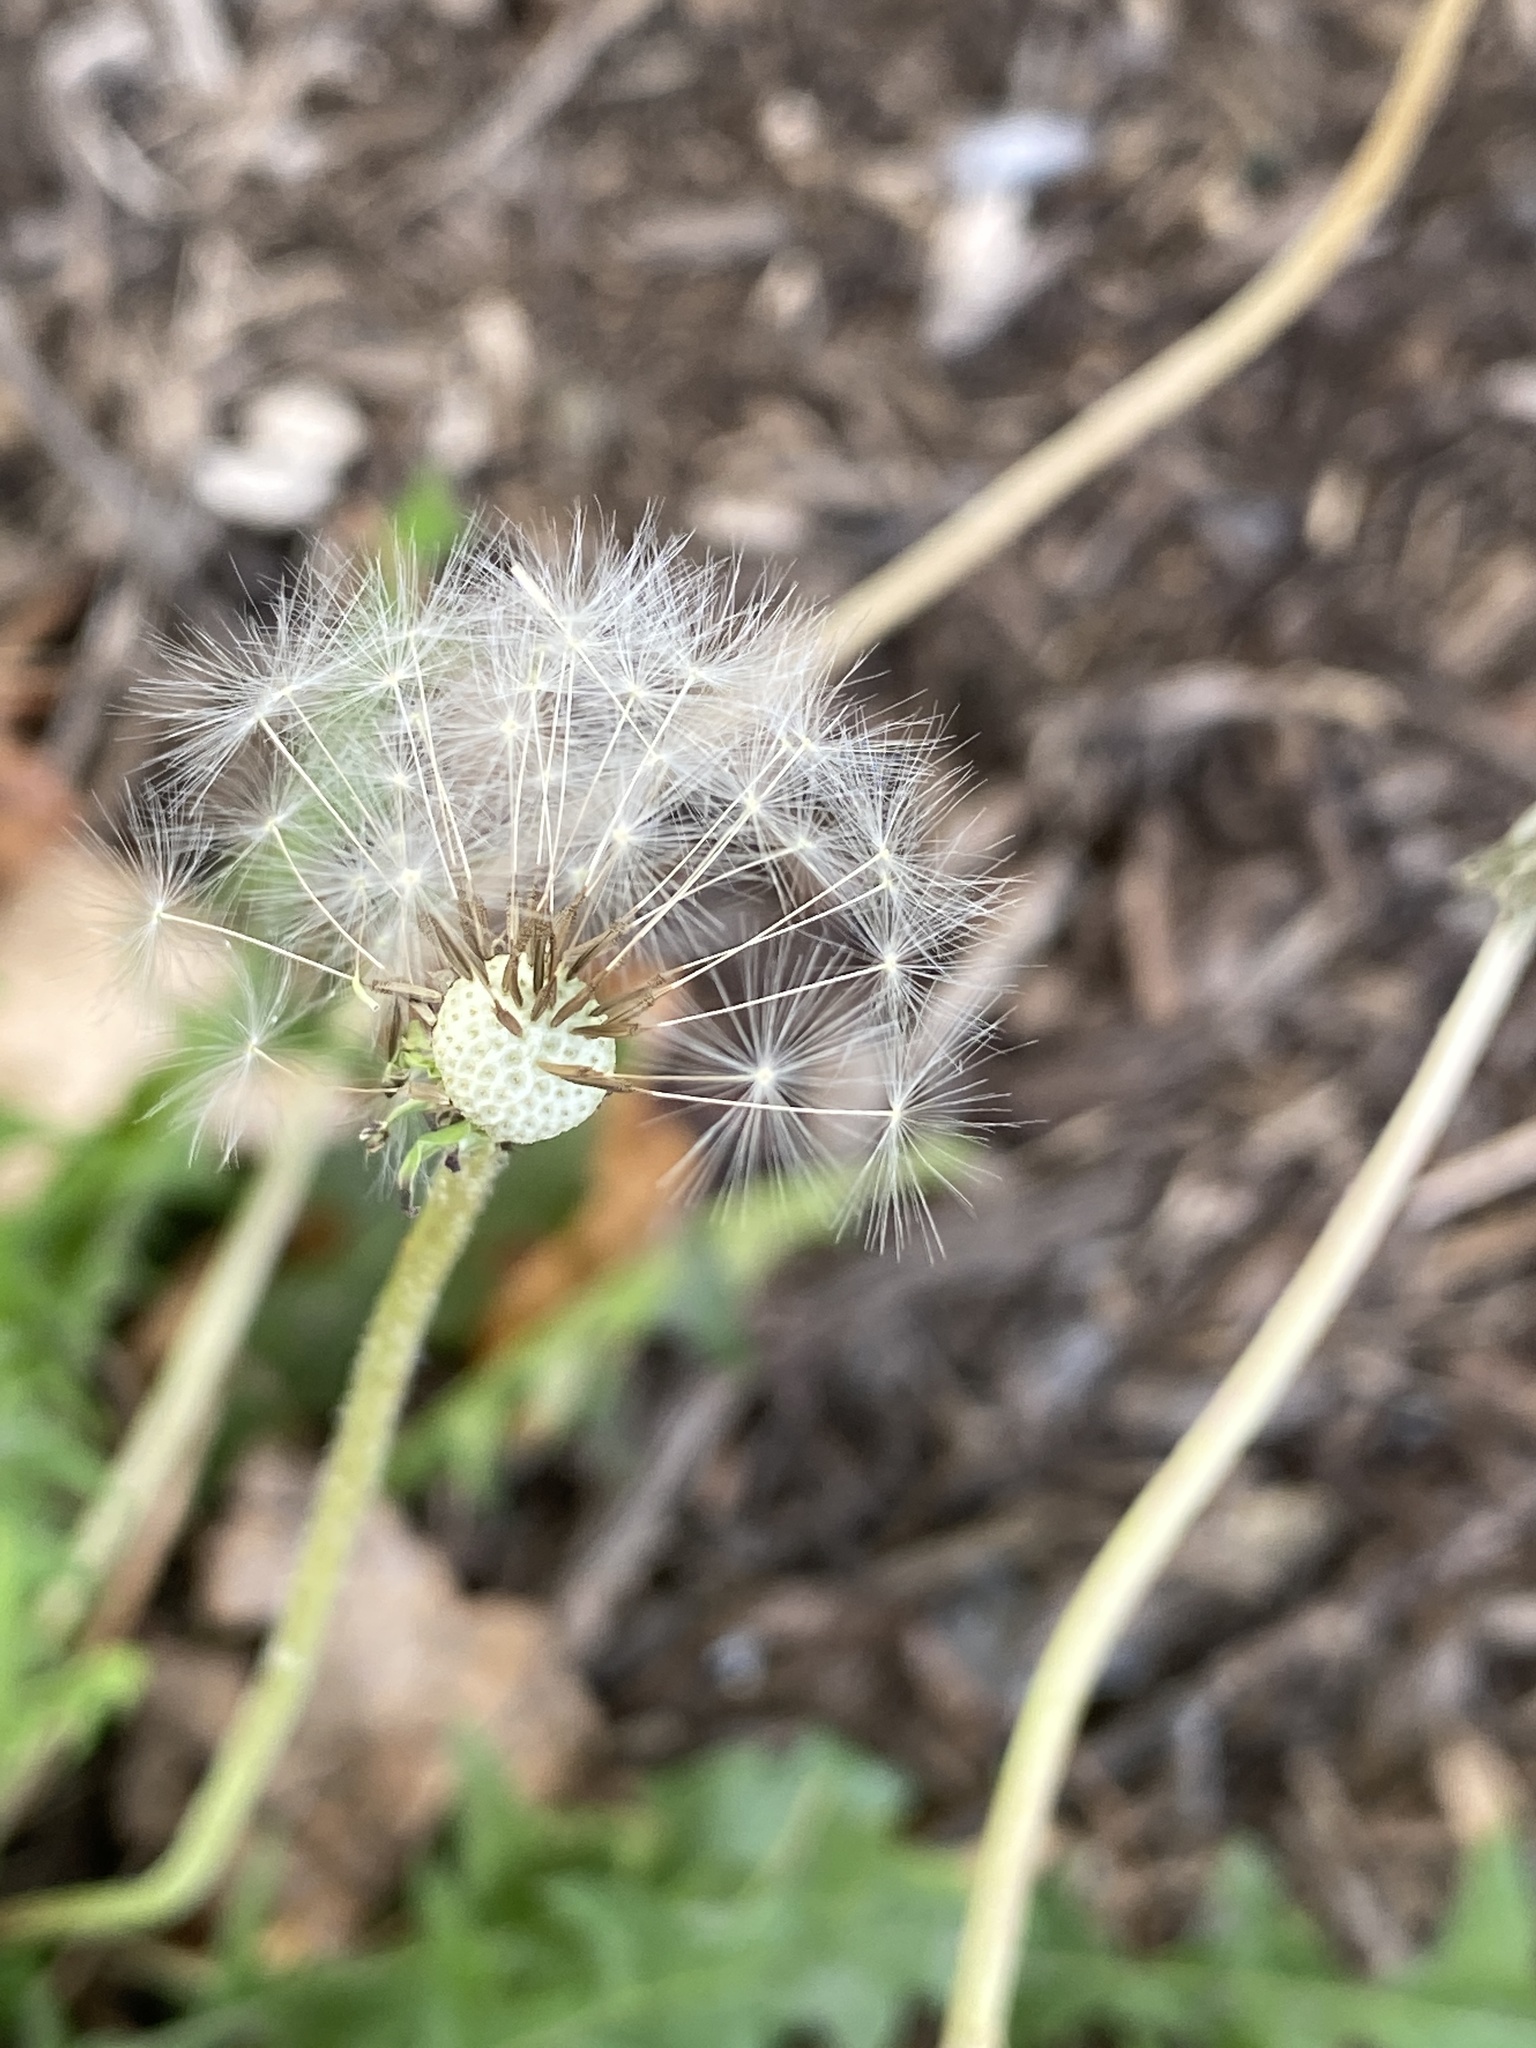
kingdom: Plantae
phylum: Tracheophyta
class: Magnoliopsida
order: Asterales
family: Asteraceae
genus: Taraxacum
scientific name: Taraxacum officinale
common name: Common dandelion
